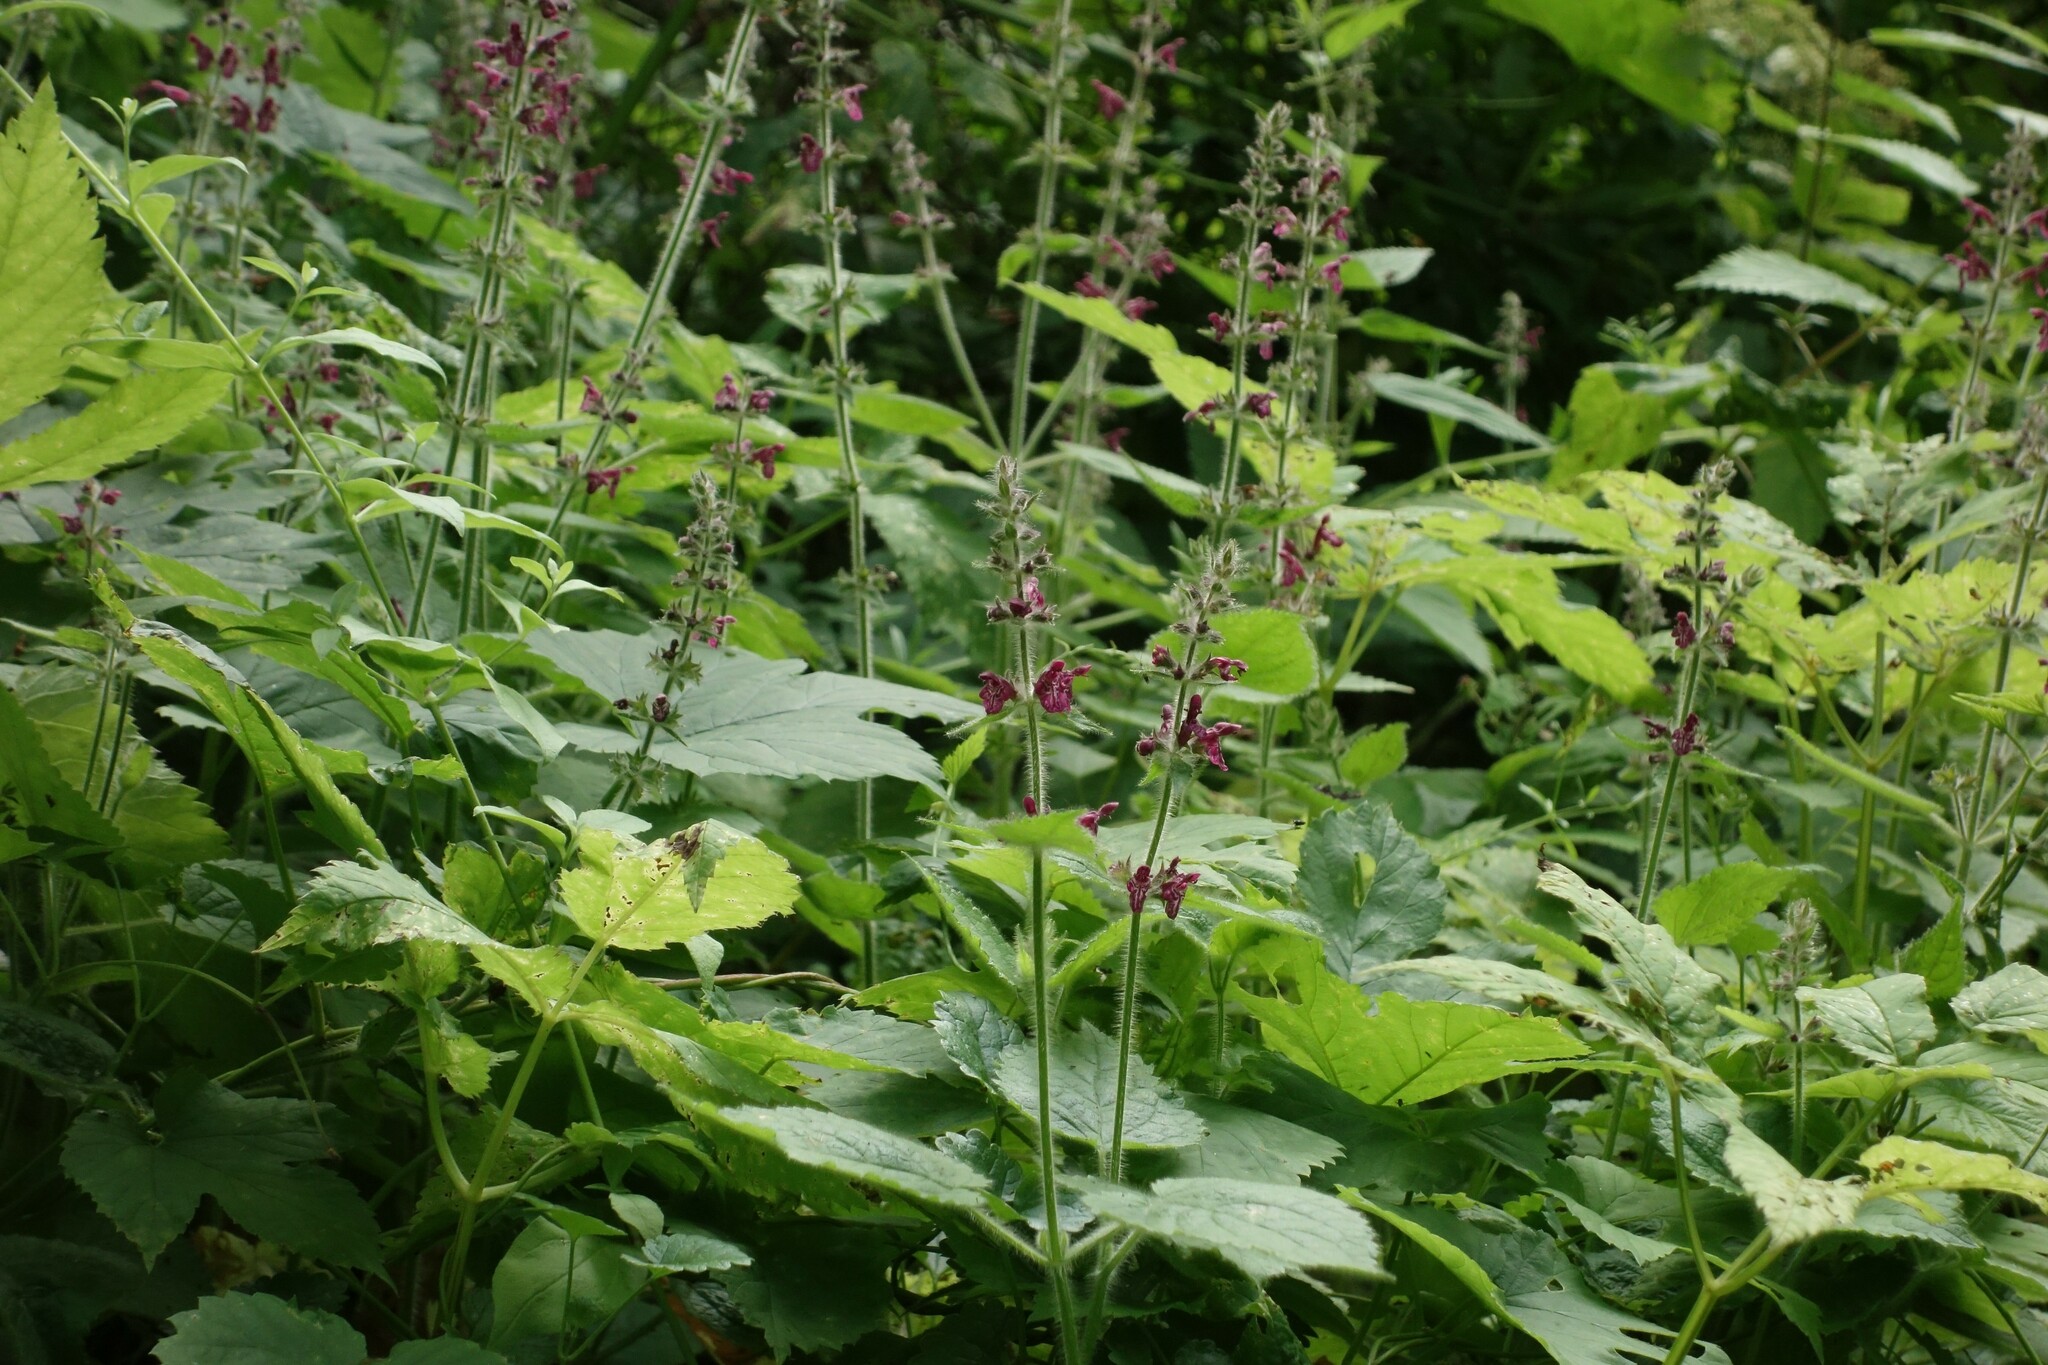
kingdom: Plantae
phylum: Tracheophyta
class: Magnoliopsida
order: Lamiales
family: Lamiaceae
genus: Stachys
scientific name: Stachys sylvatica
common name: Hedge woundwort
